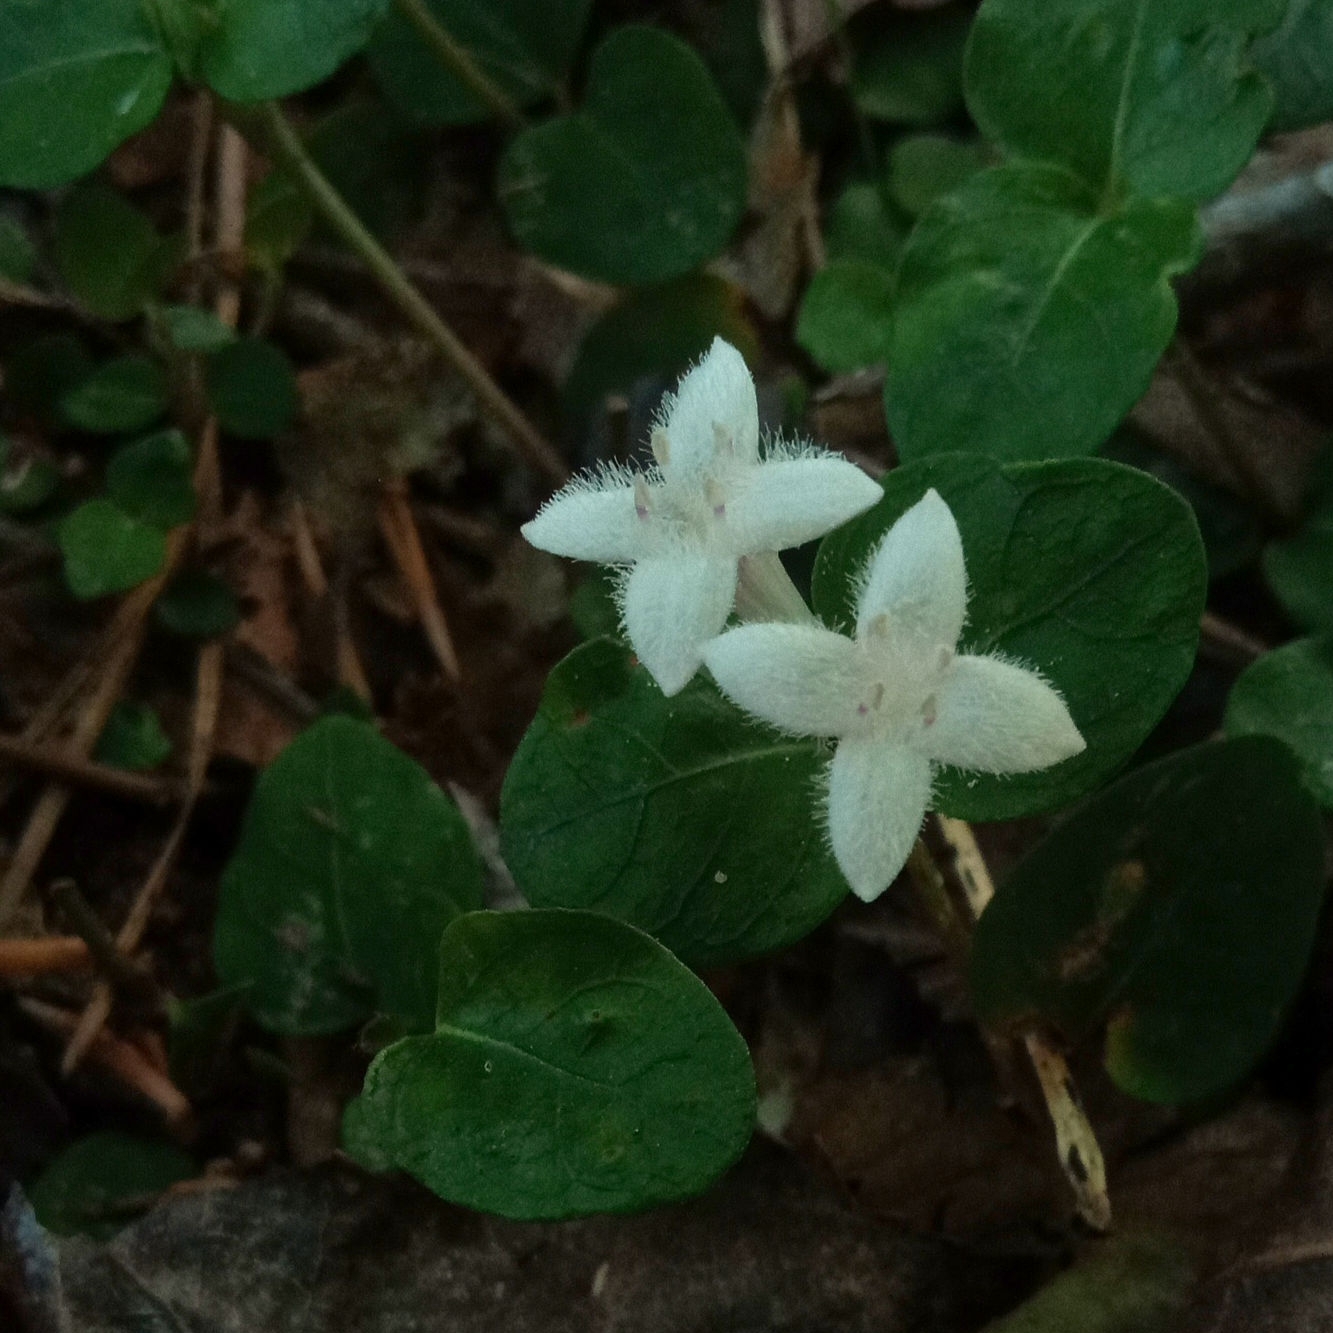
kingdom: Plantae
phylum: Tracheophyta
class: Magnoliopsida
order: Gentianales
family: Rubiaceae
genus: Mitchella
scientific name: Mitchella repens
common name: Partridge-berry
